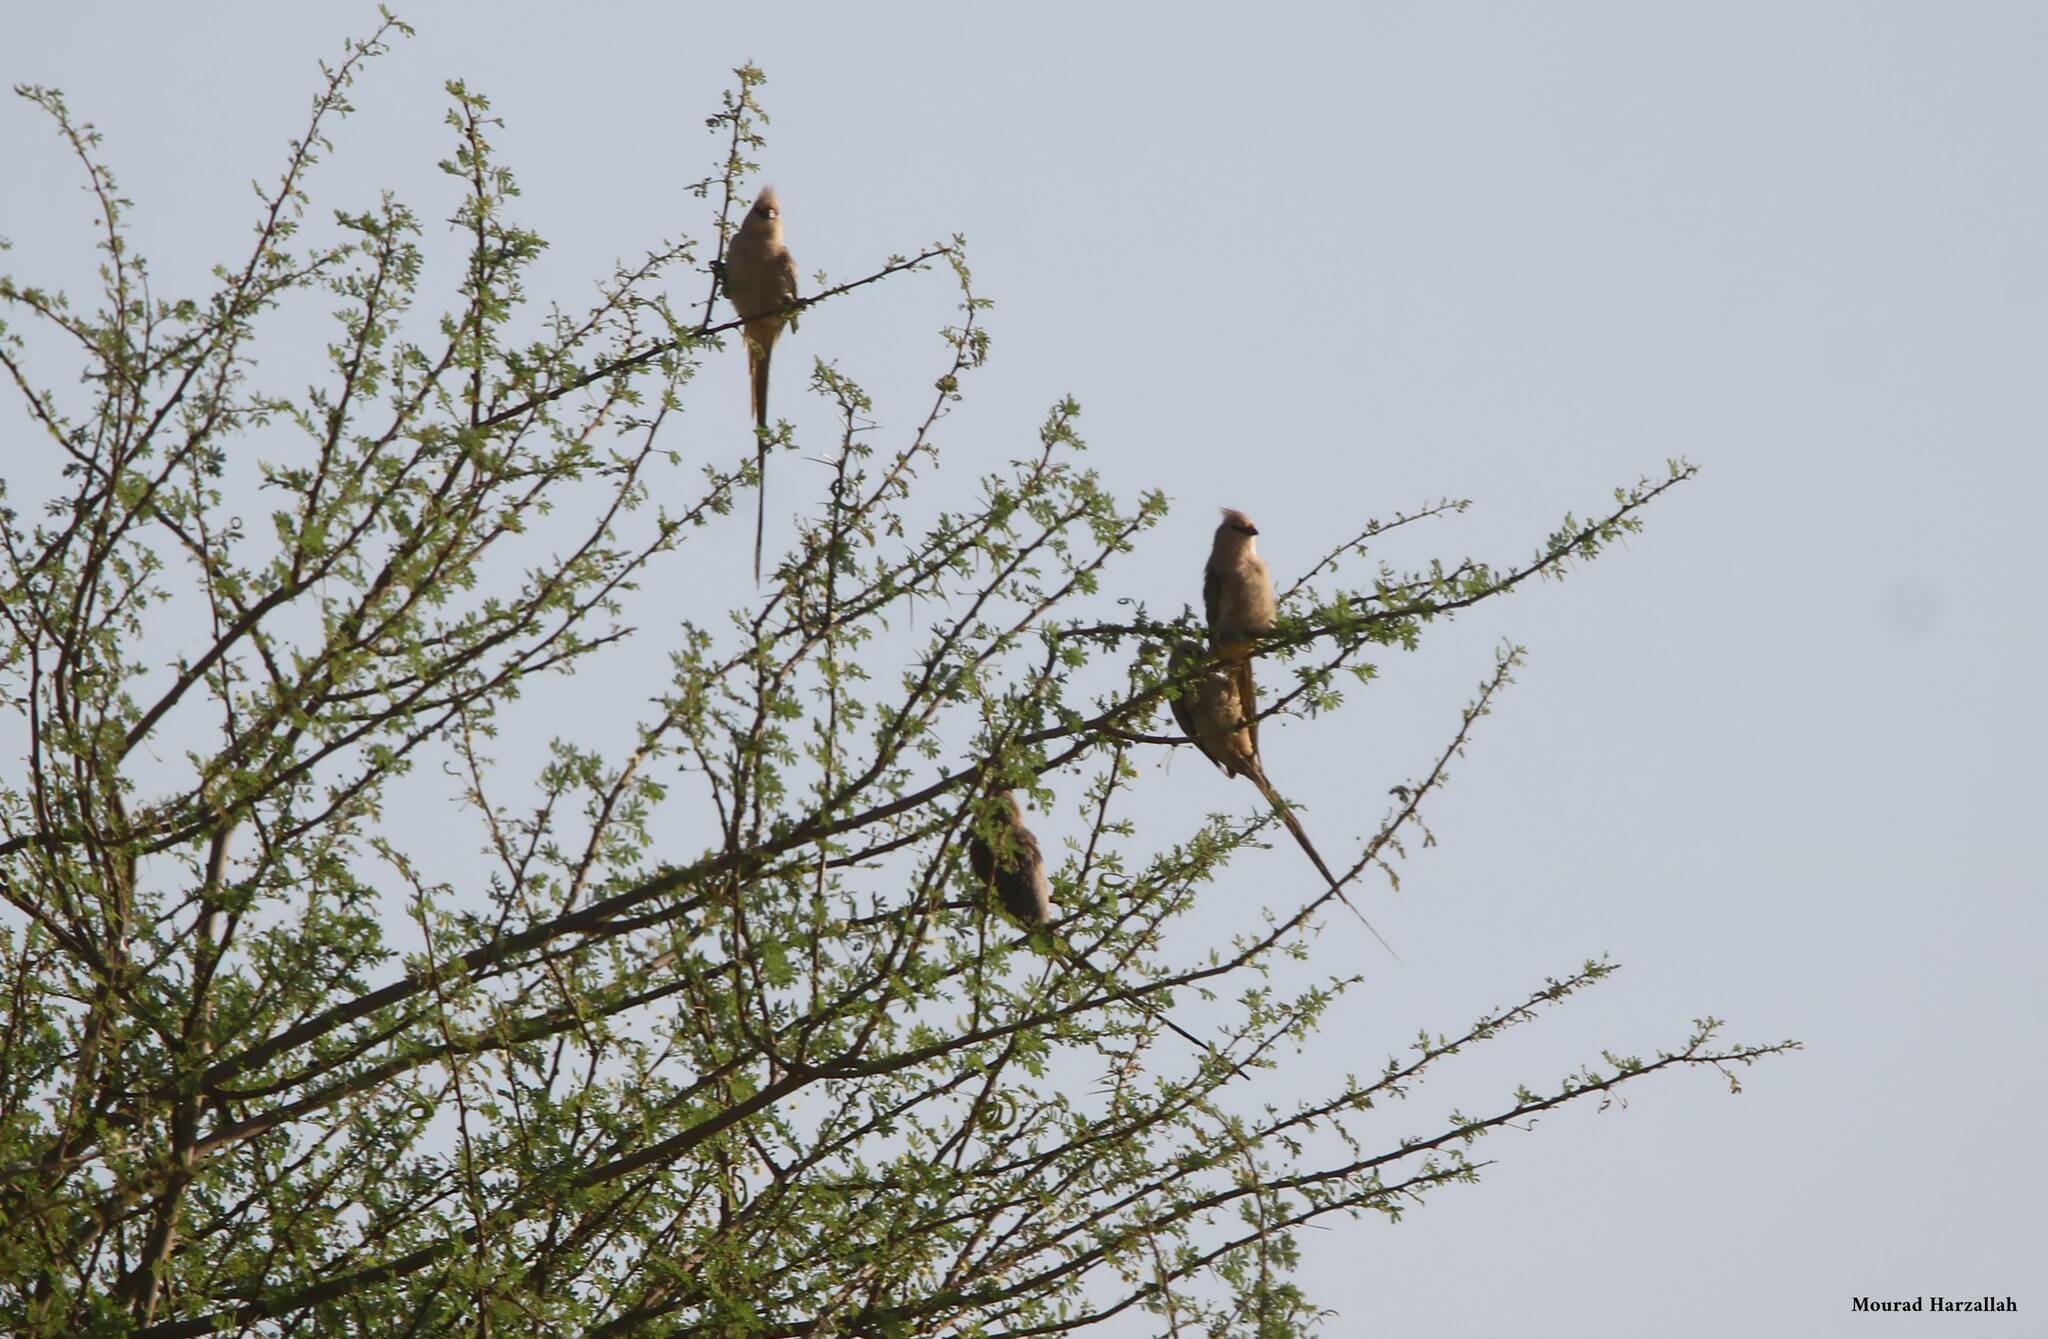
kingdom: Animalia
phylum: Chordata
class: Aves
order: Coliiformes
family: Coliidae
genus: Urocolius
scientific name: Urocolius macrourus
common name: Blue-naped mousebird
